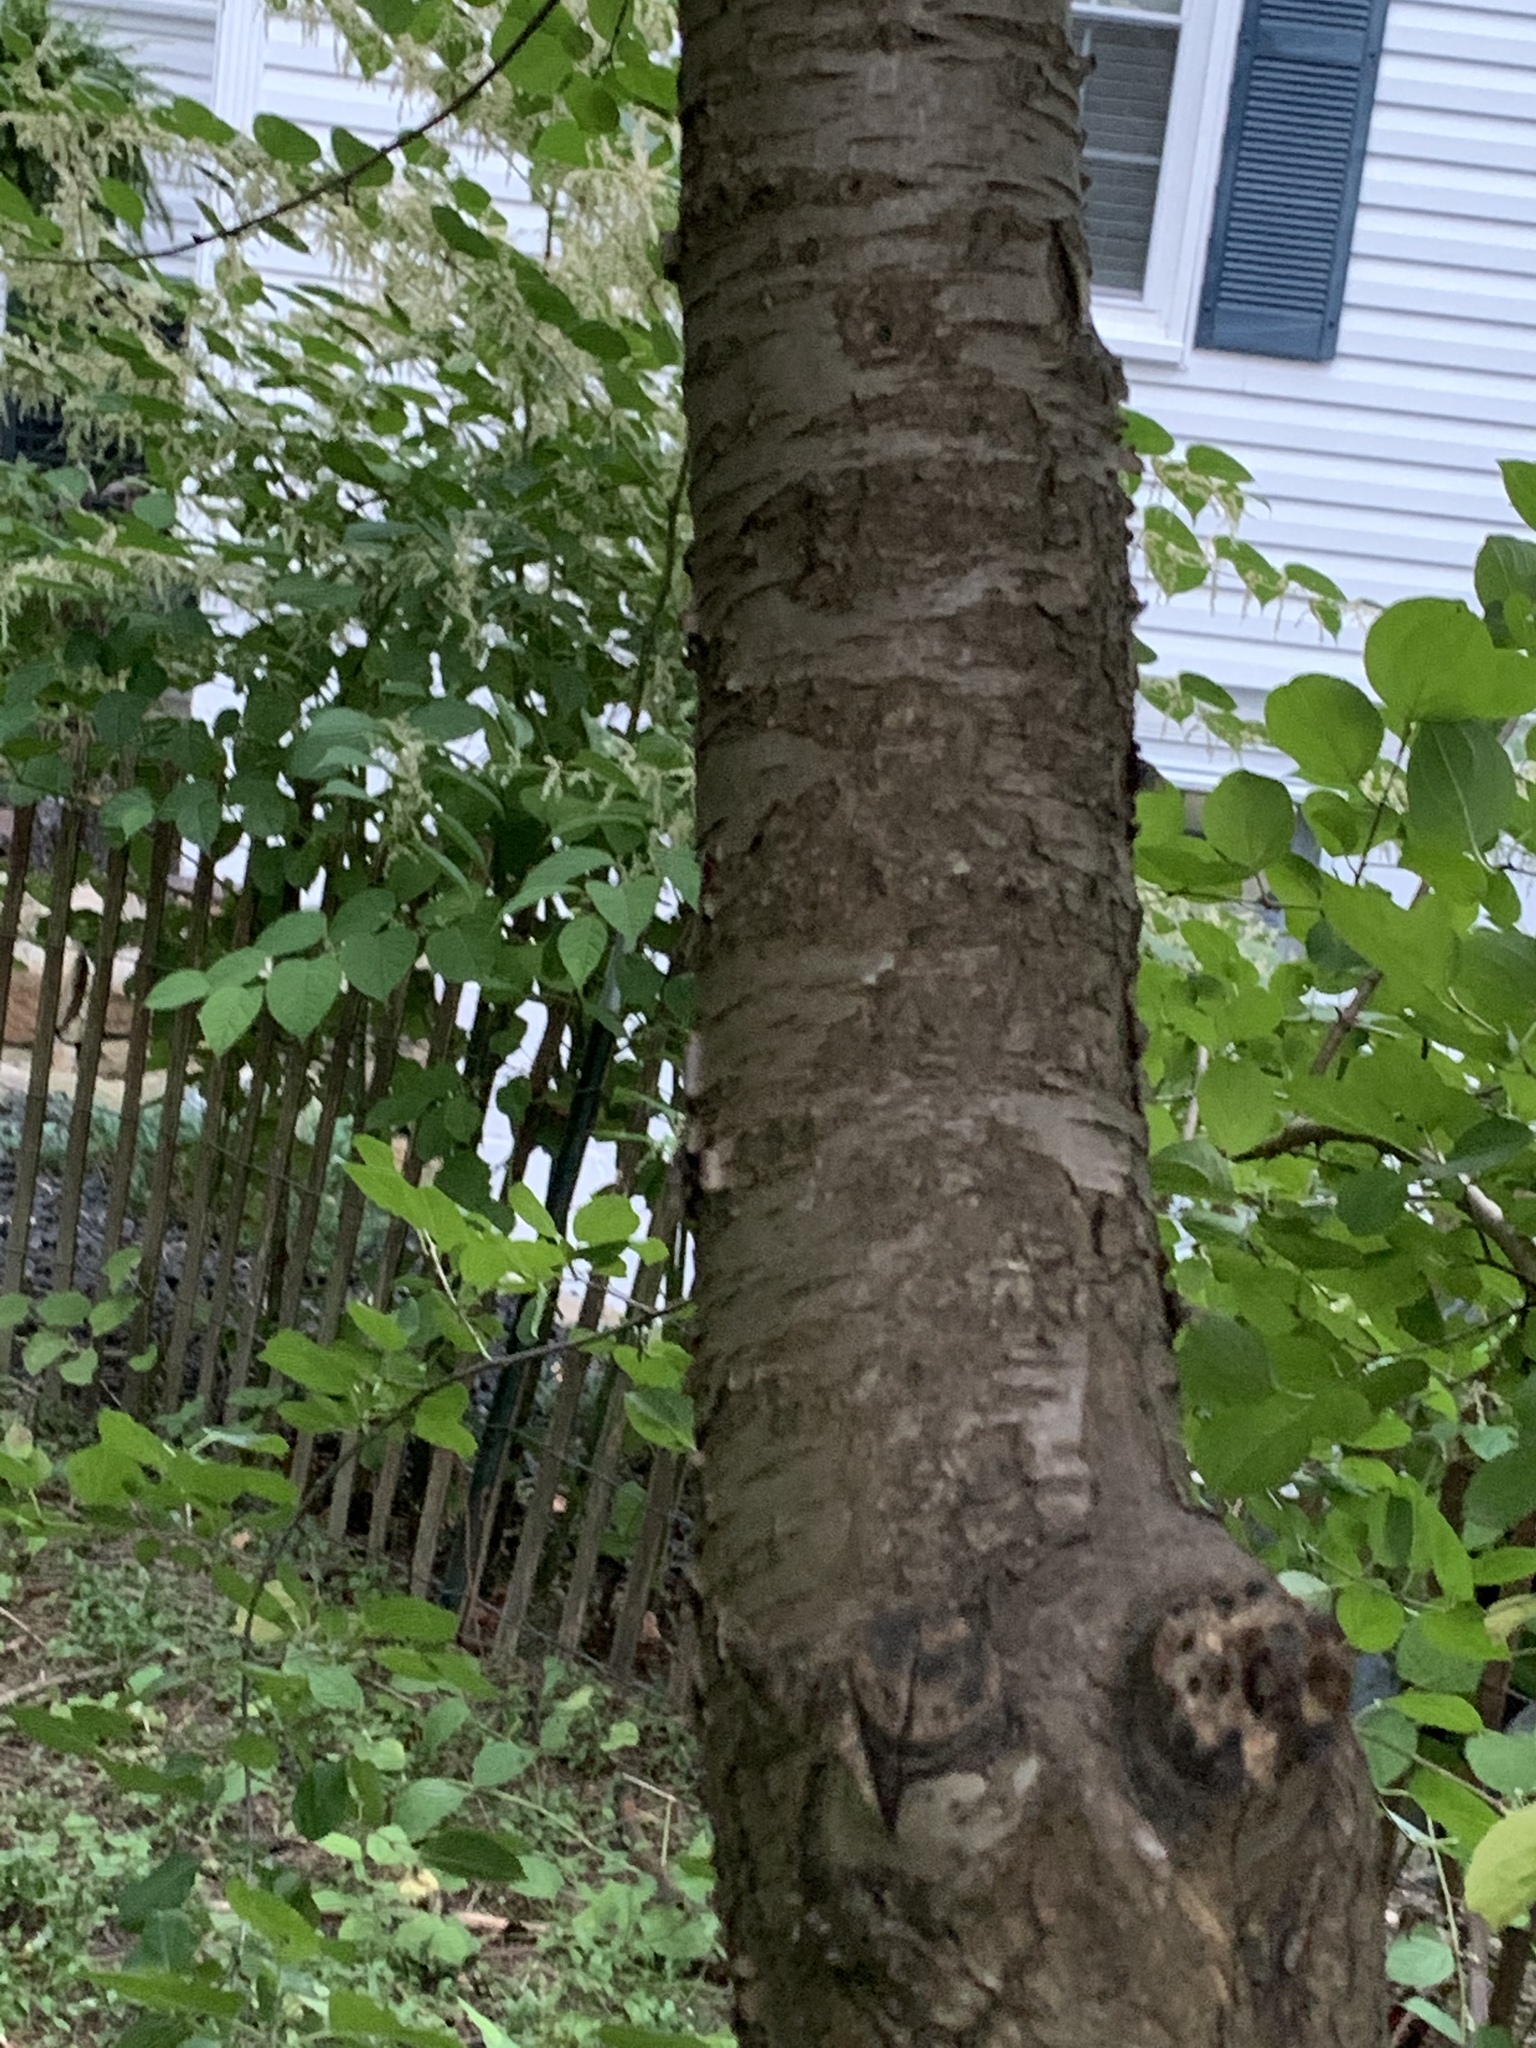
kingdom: Plantae
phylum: Tracheophyta
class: Magnoliopsida
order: Rosales
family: Rhamnaceae
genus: Rhamnus
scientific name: Rhamnus cathartica
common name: Common buckthorn
